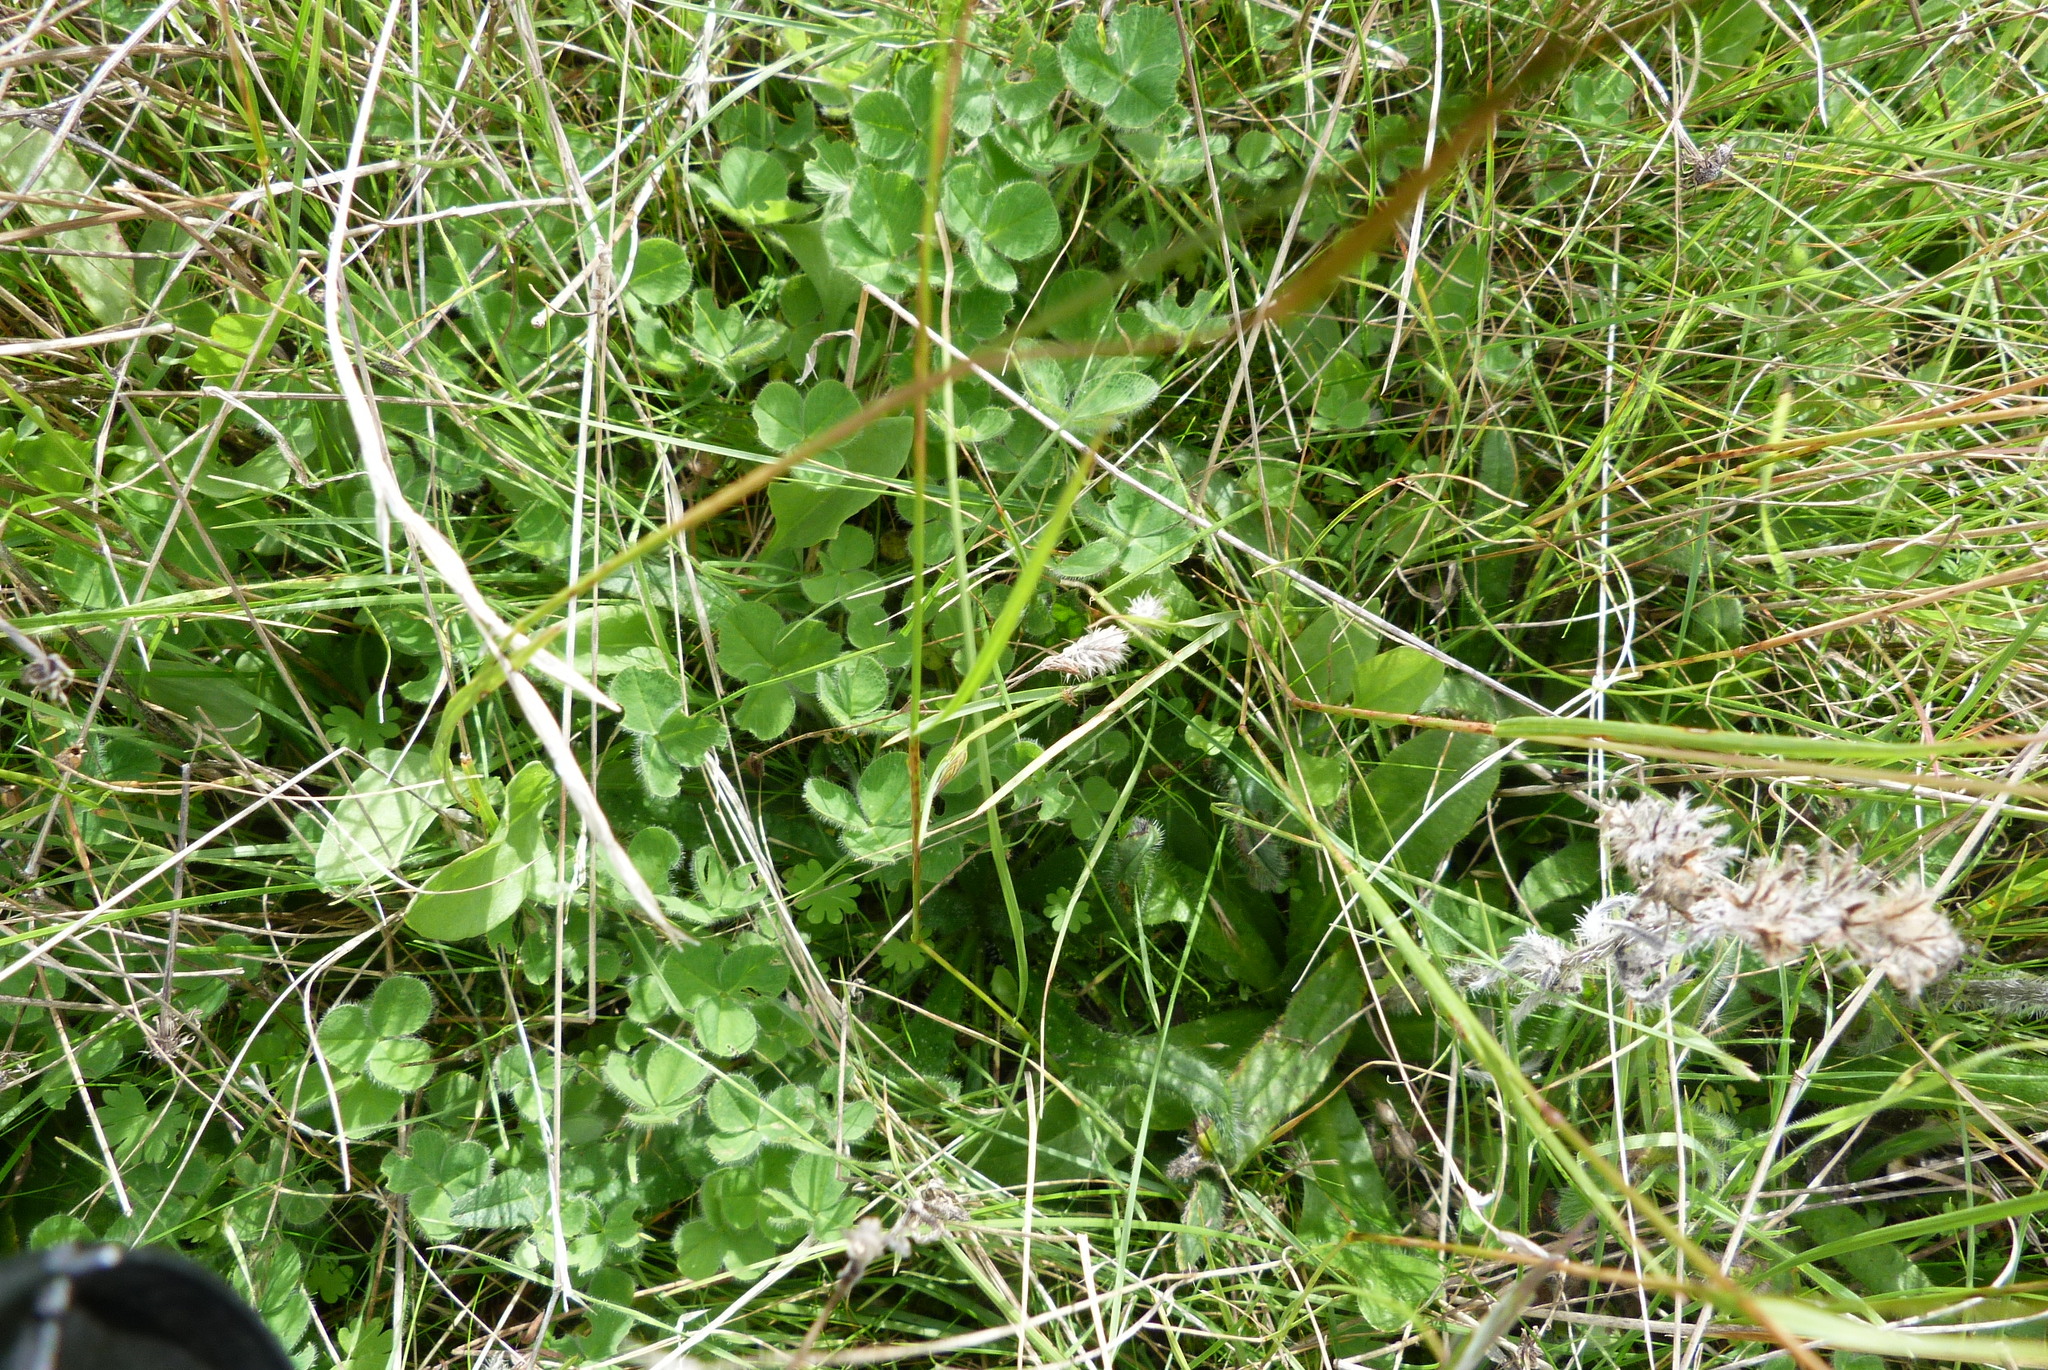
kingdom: Plantae
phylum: Tracheophyta
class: Magnoliopsida
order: Fabales
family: Fabaceae
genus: Trifolium
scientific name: Trifolium subterraneum
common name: Subterranean clover
